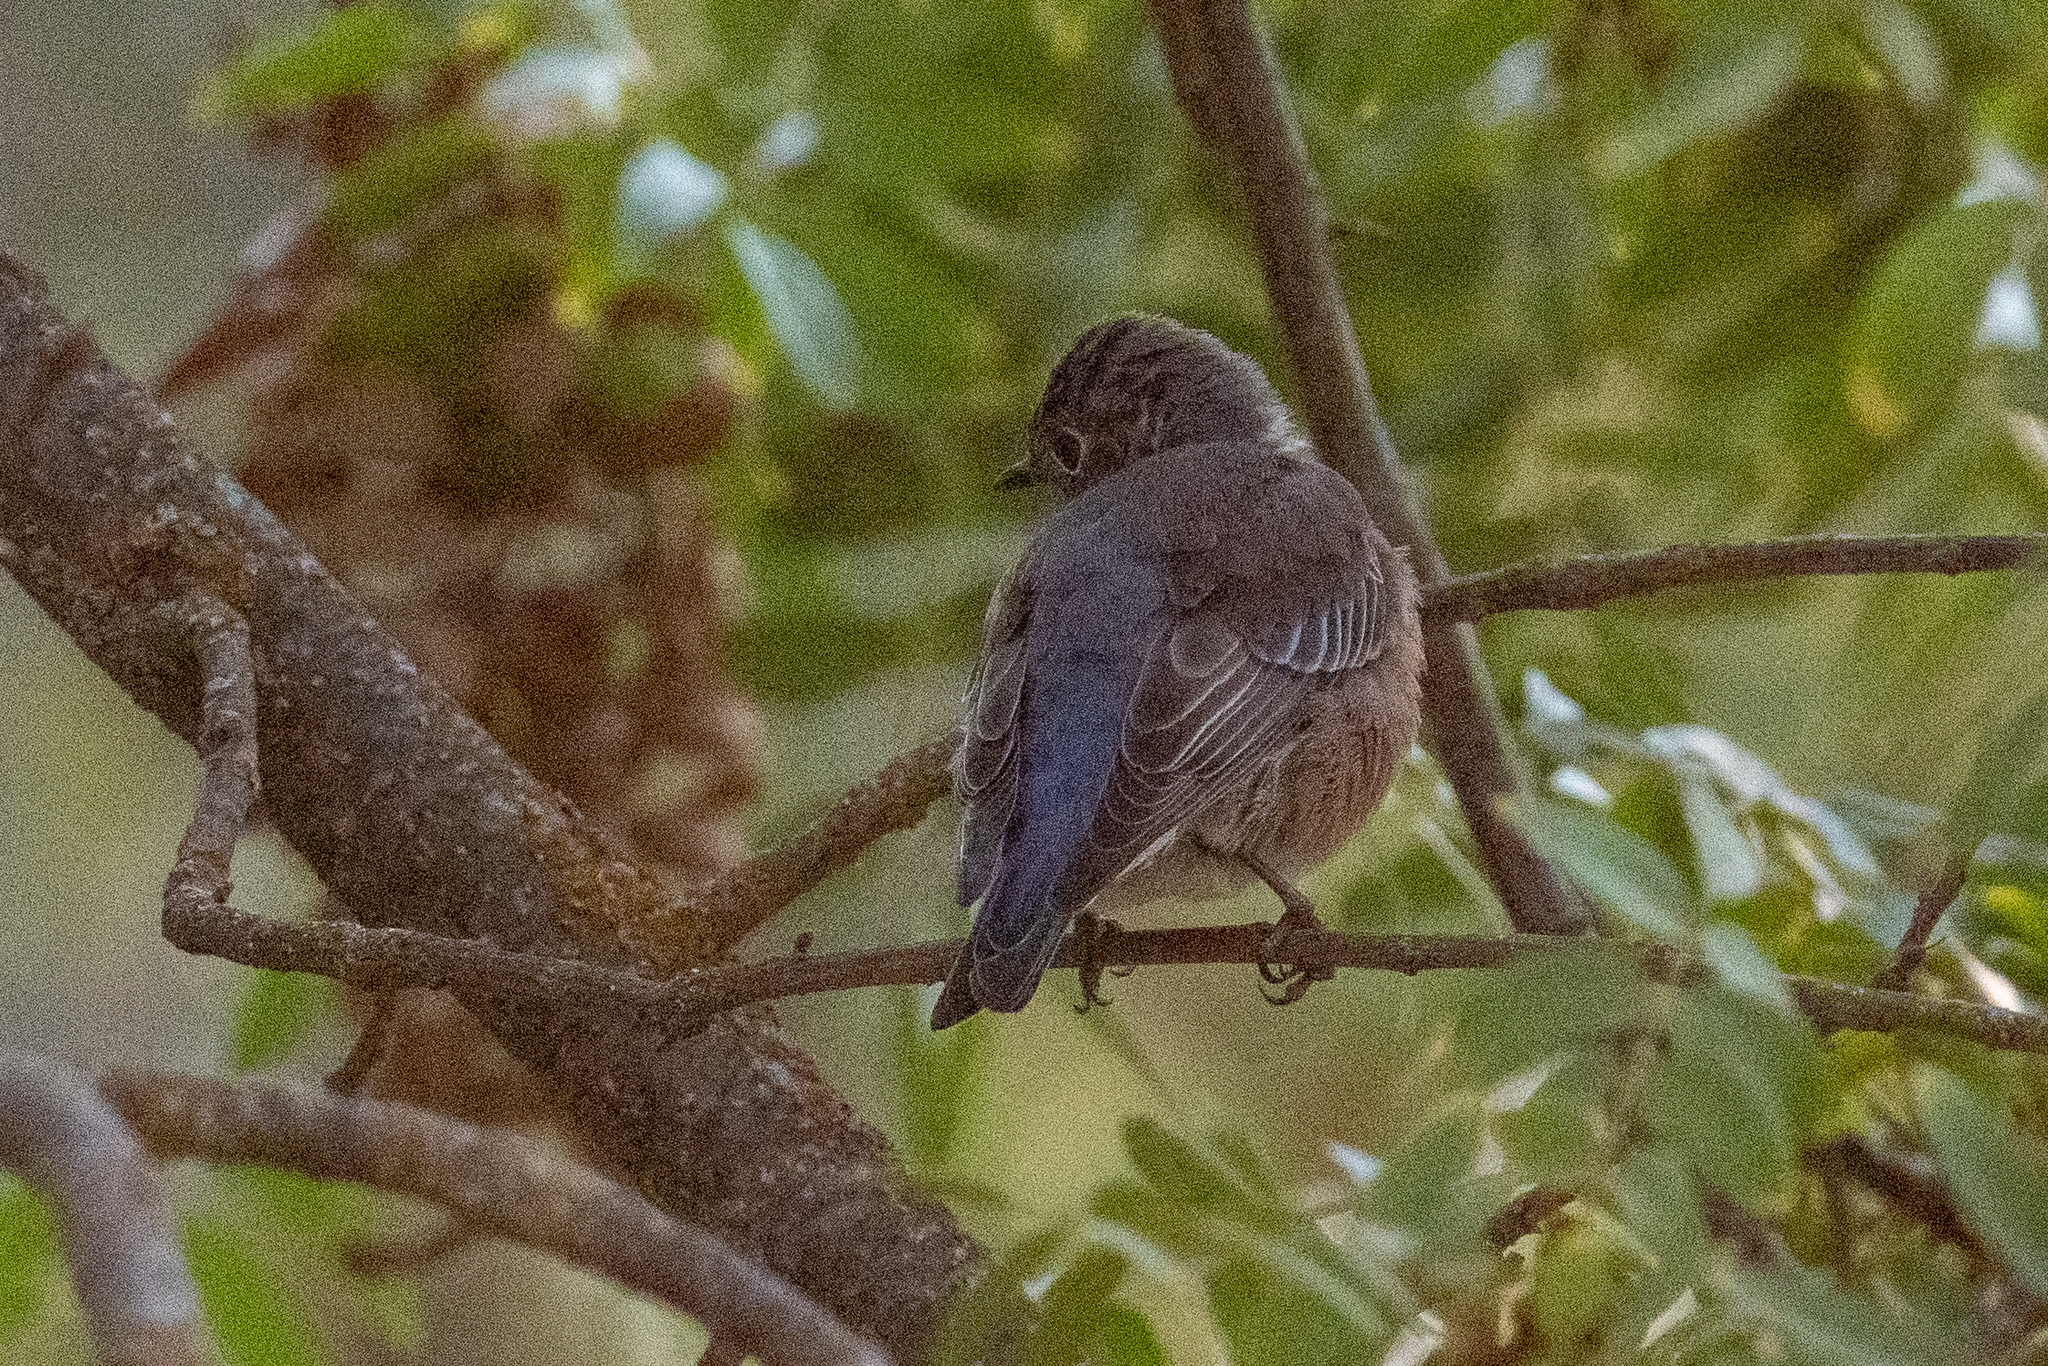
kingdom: Animalia
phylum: Chordata
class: Aves
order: Passeriformes
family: Turdidae
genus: Sialia
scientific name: Sialia mexicana
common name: Western bluebird
